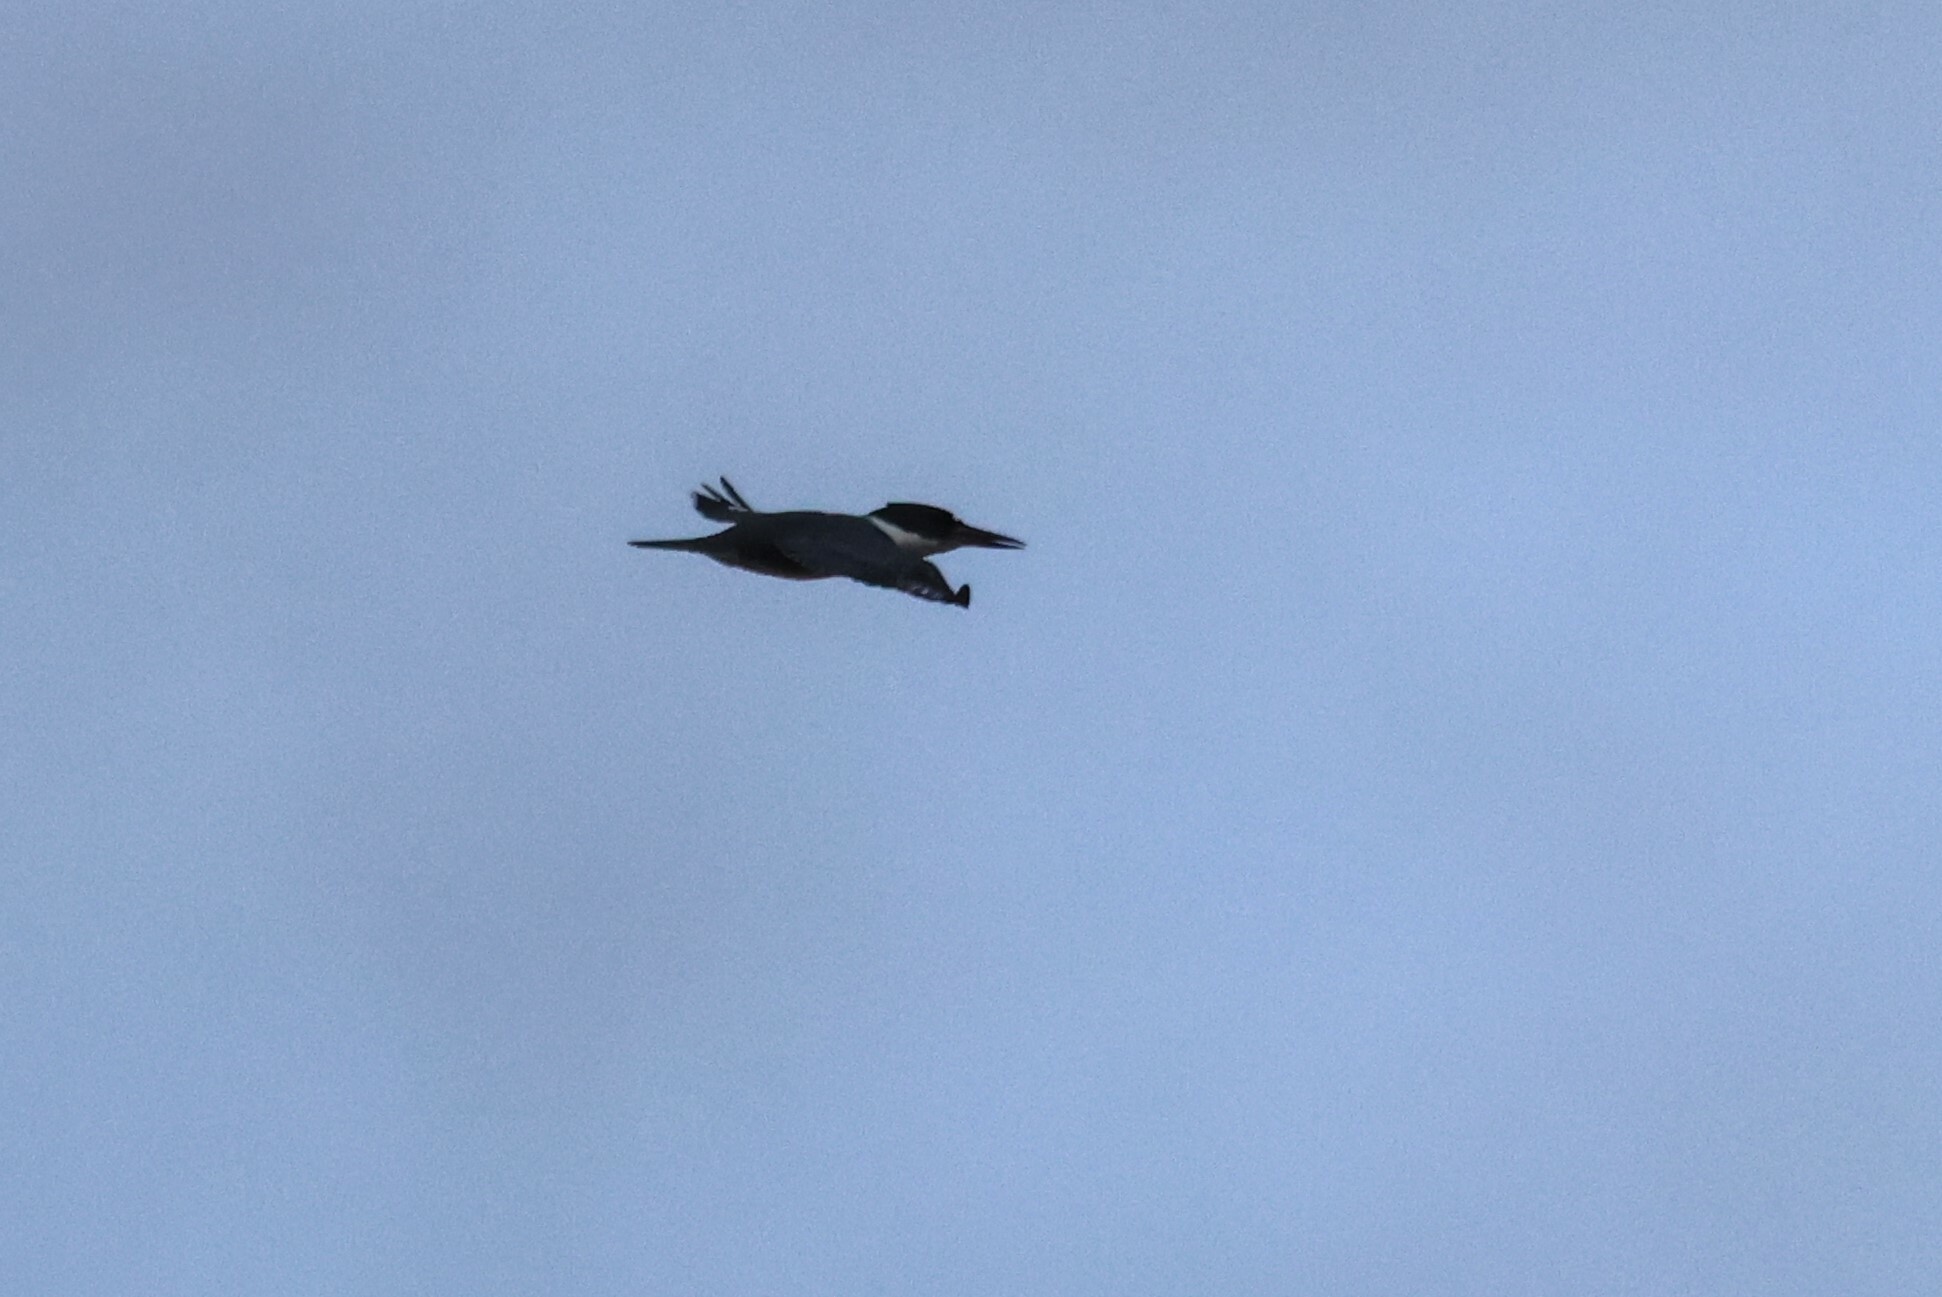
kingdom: Animalia
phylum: Chordata
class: Aves
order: Coraciiformes
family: Alcedinidae
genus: Megaceryle
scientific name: Megaceryle alcyon
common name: Belted kingfisher
